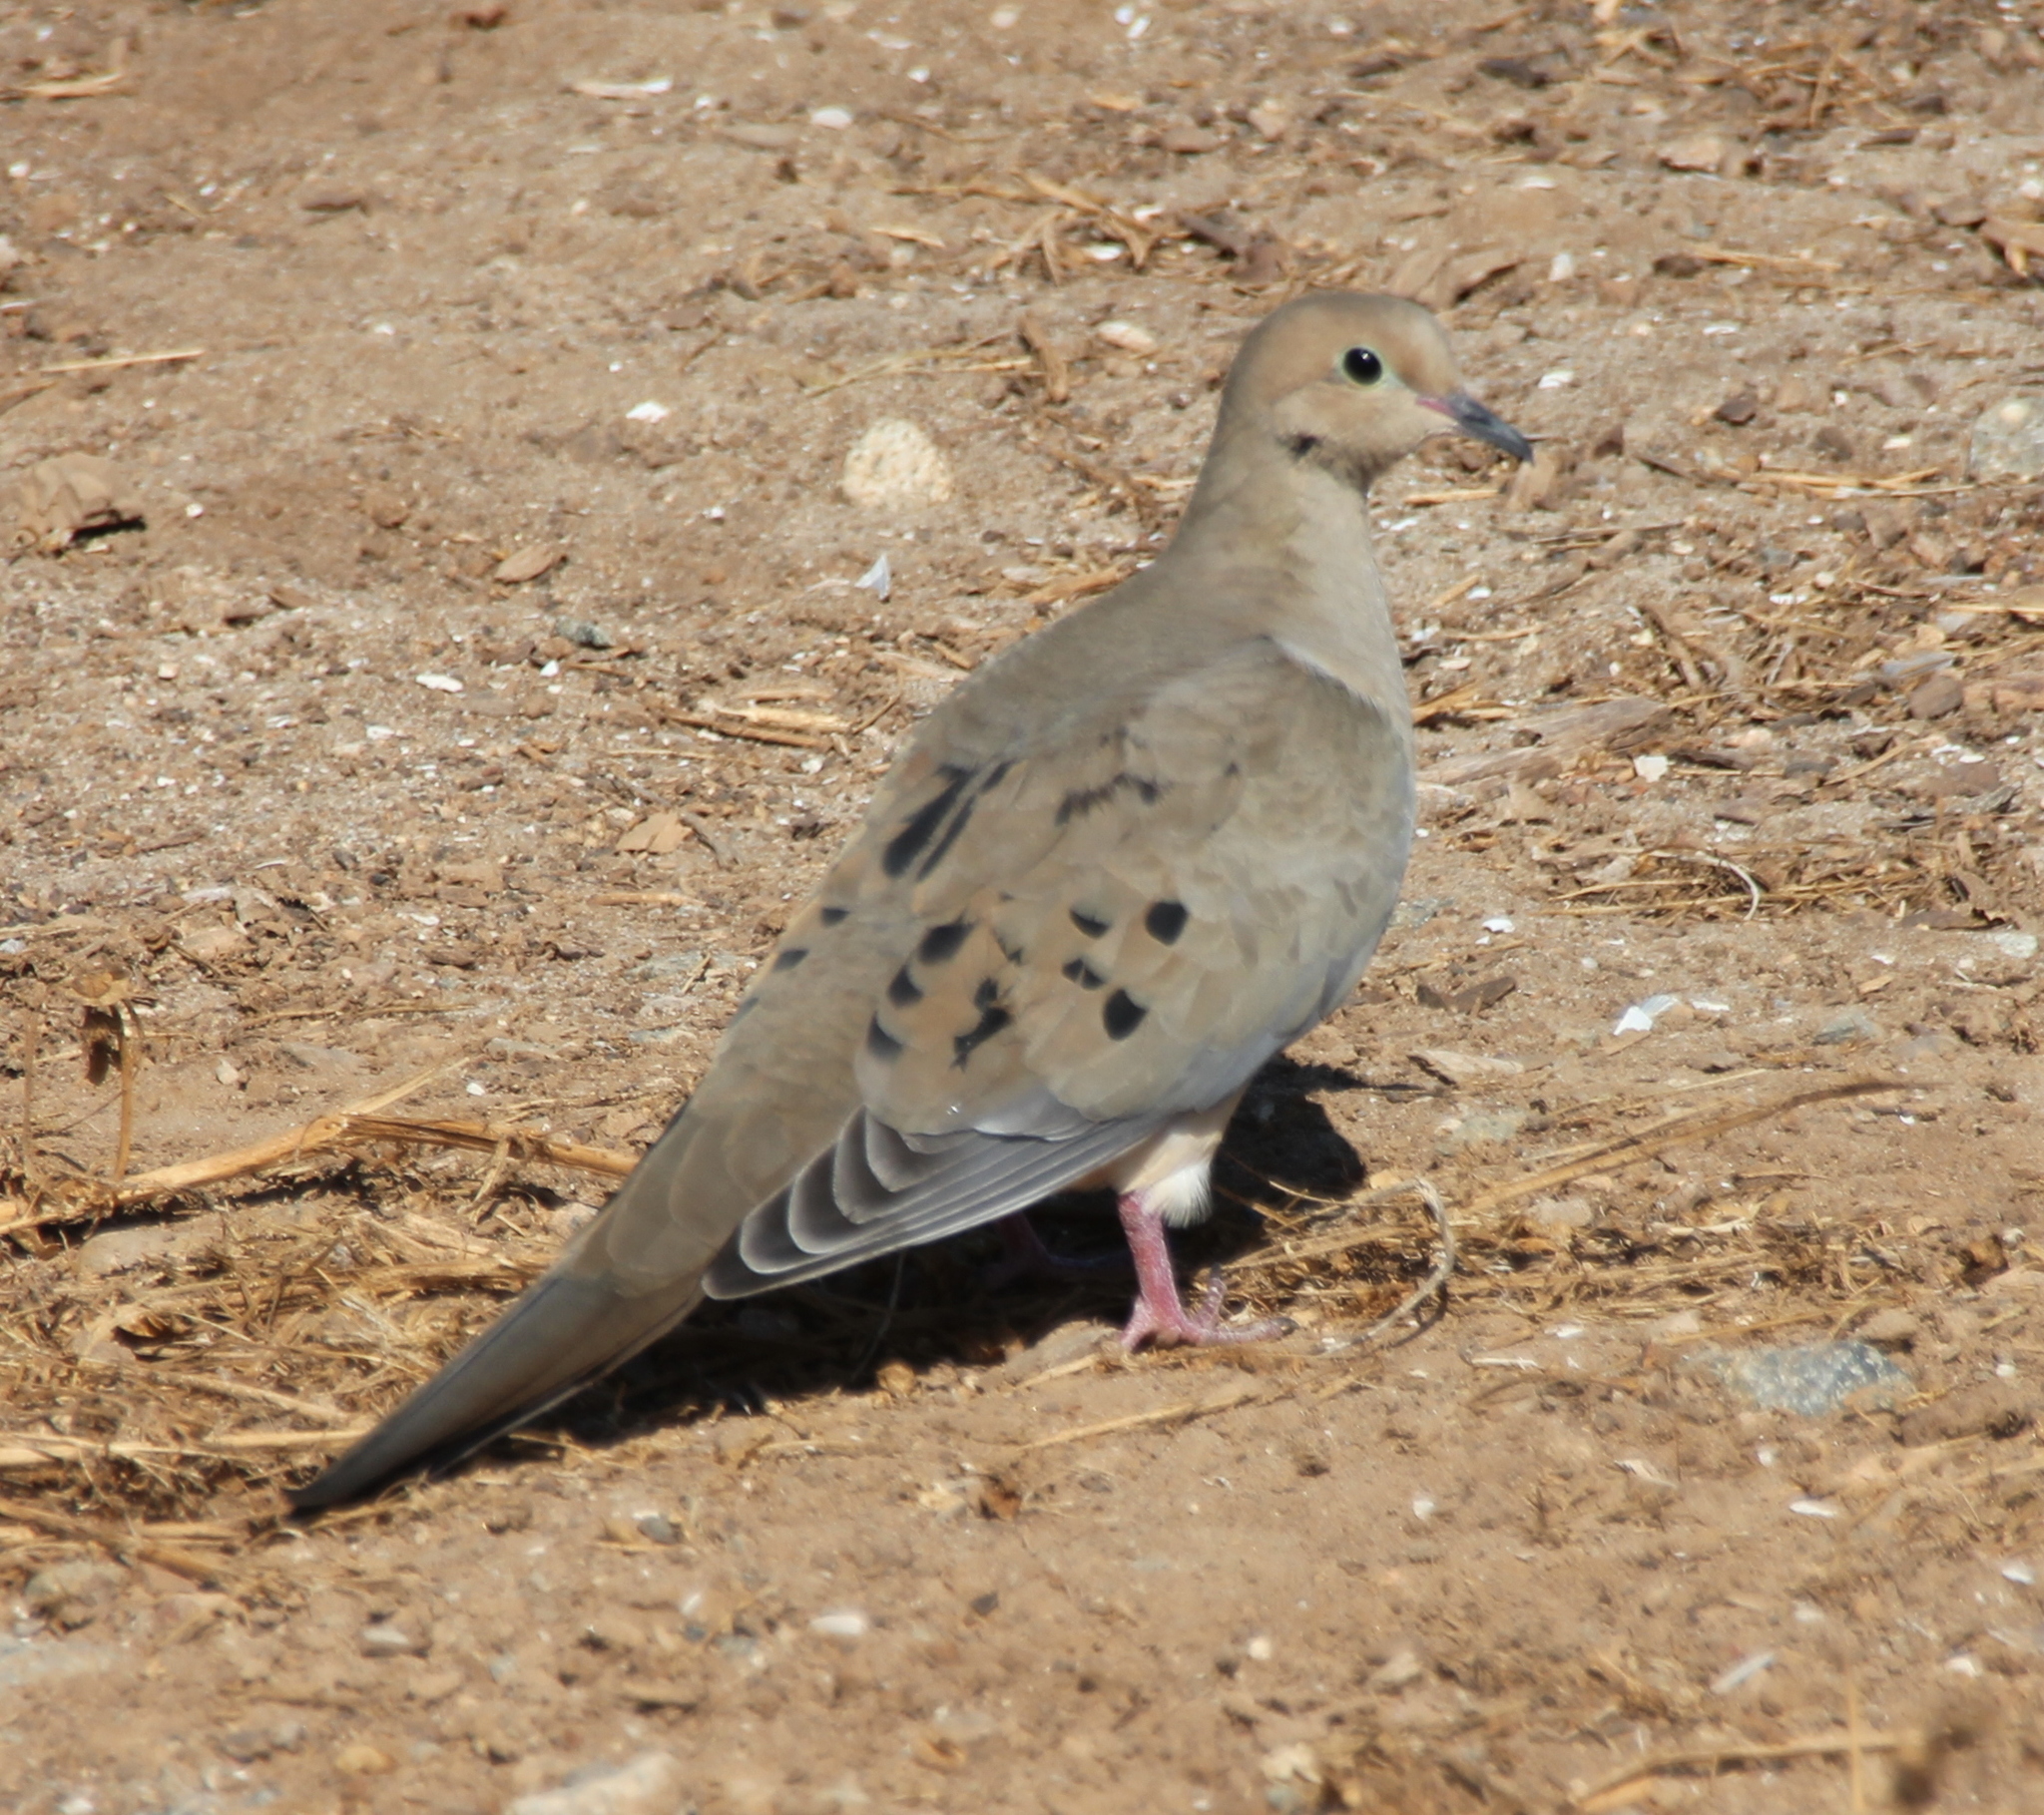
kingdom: Animalia
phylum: Chordata
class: Aves
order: Columbiformes
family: Columbidae
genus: Zenaida
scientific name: Zenaida macroura
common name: Mourning dove
